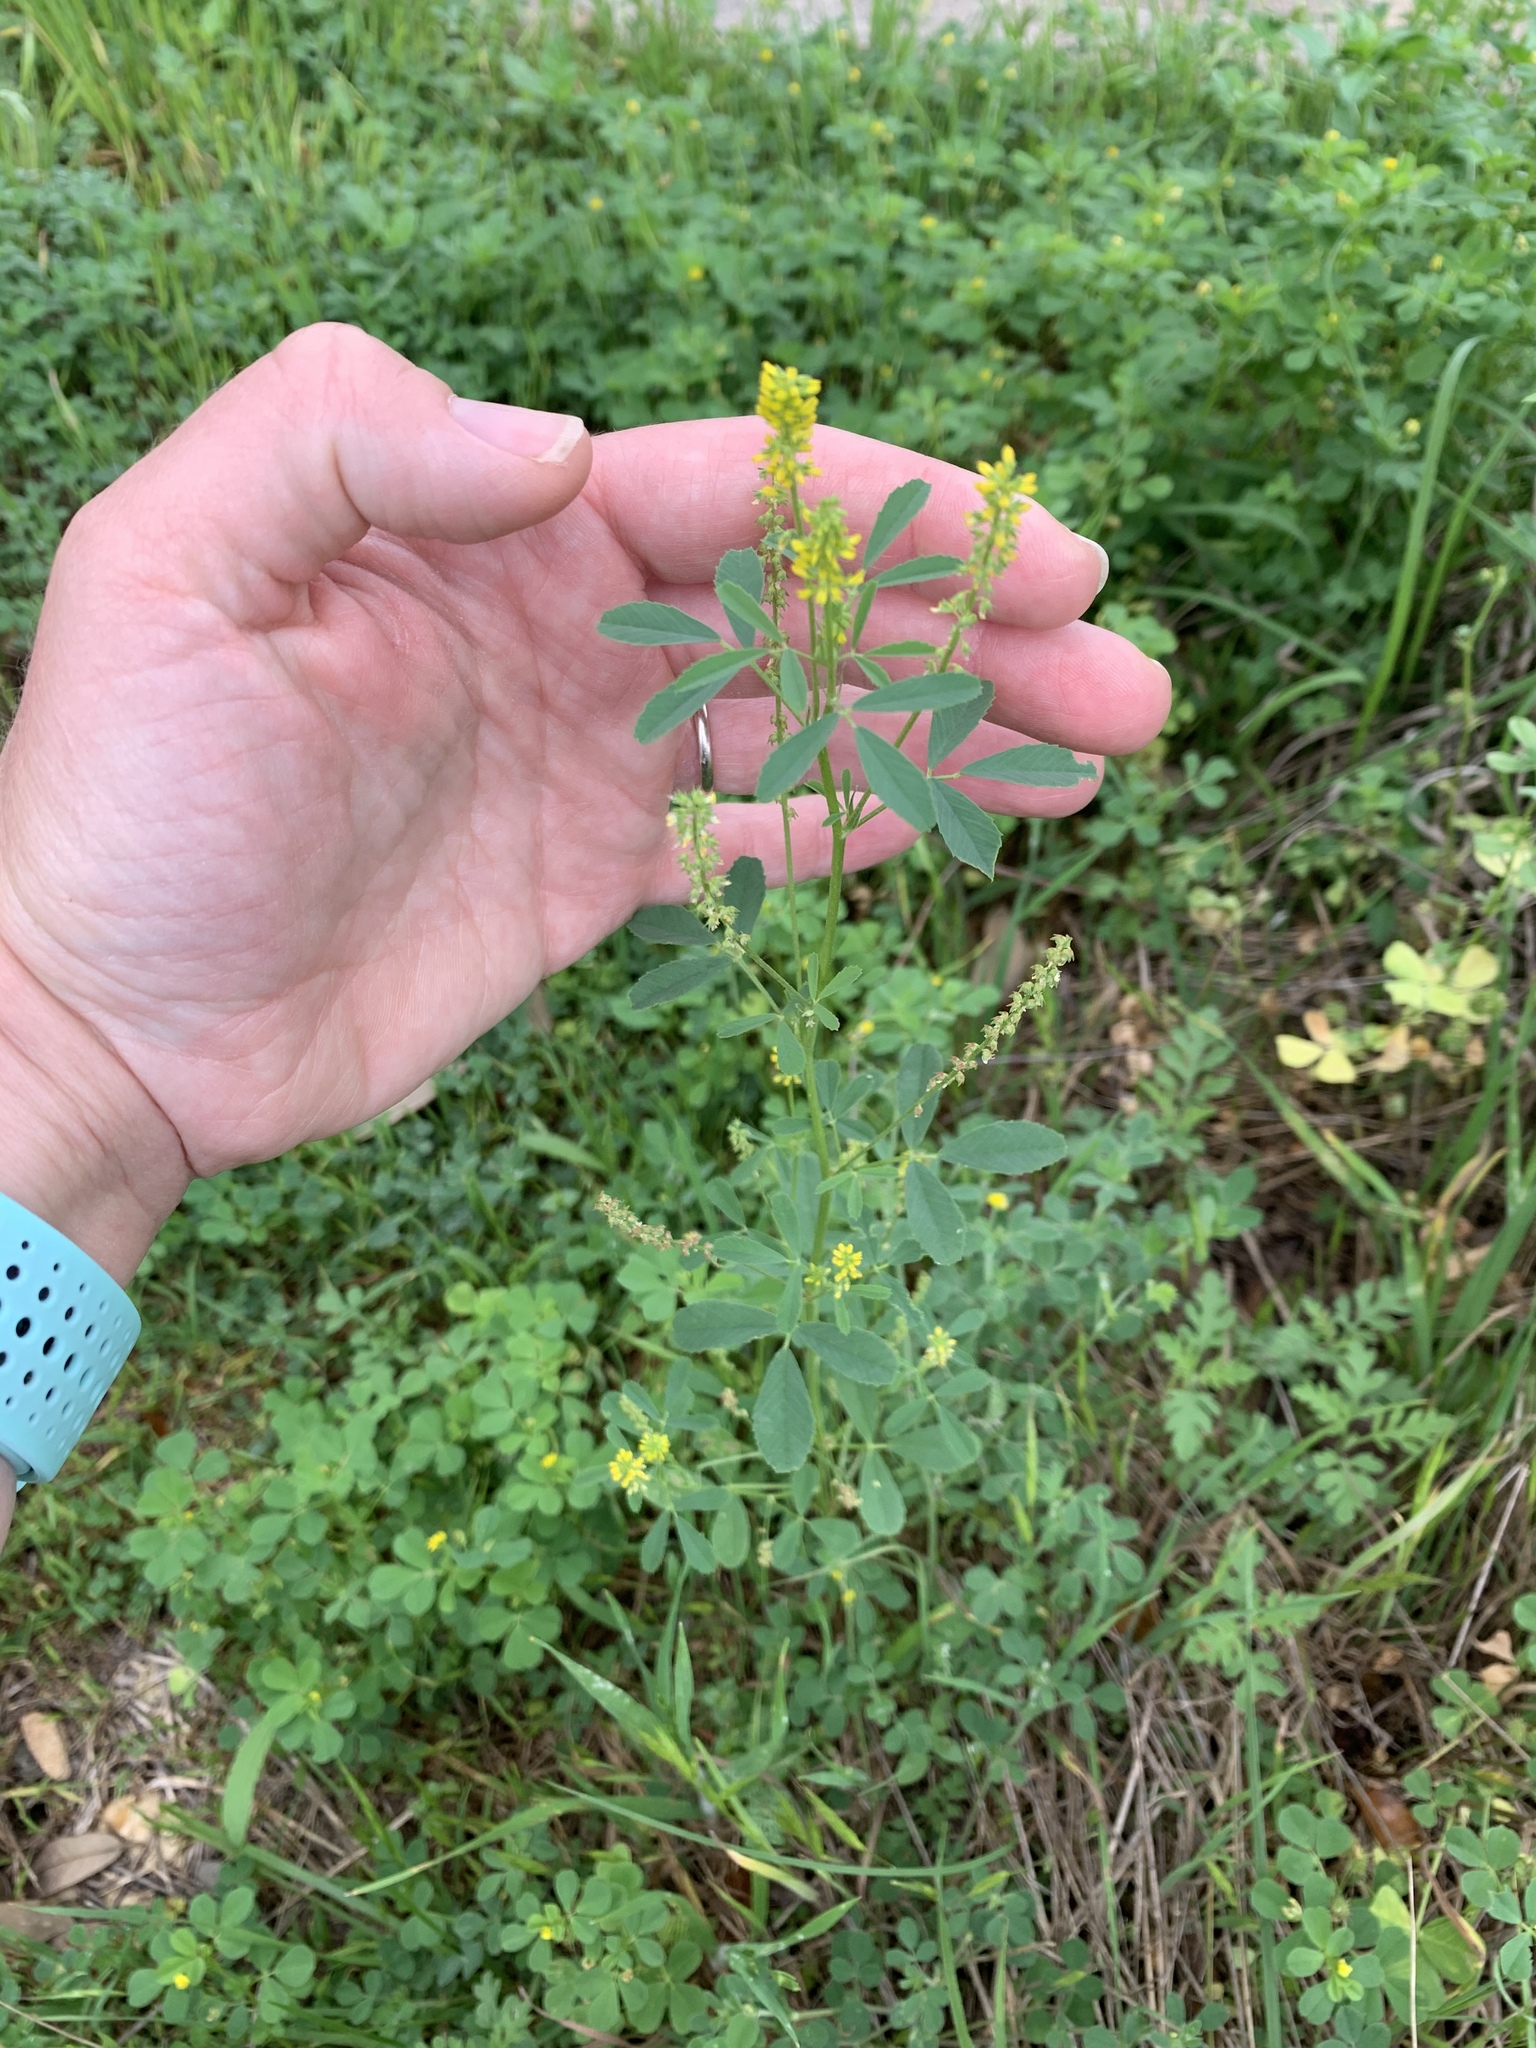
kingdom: Plantae
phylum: Tracheophyta
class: Magnoliopsida
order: Fabales
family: Fabaceae
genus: Melilotus
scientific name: Melilotus indicus
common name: Small melilot
